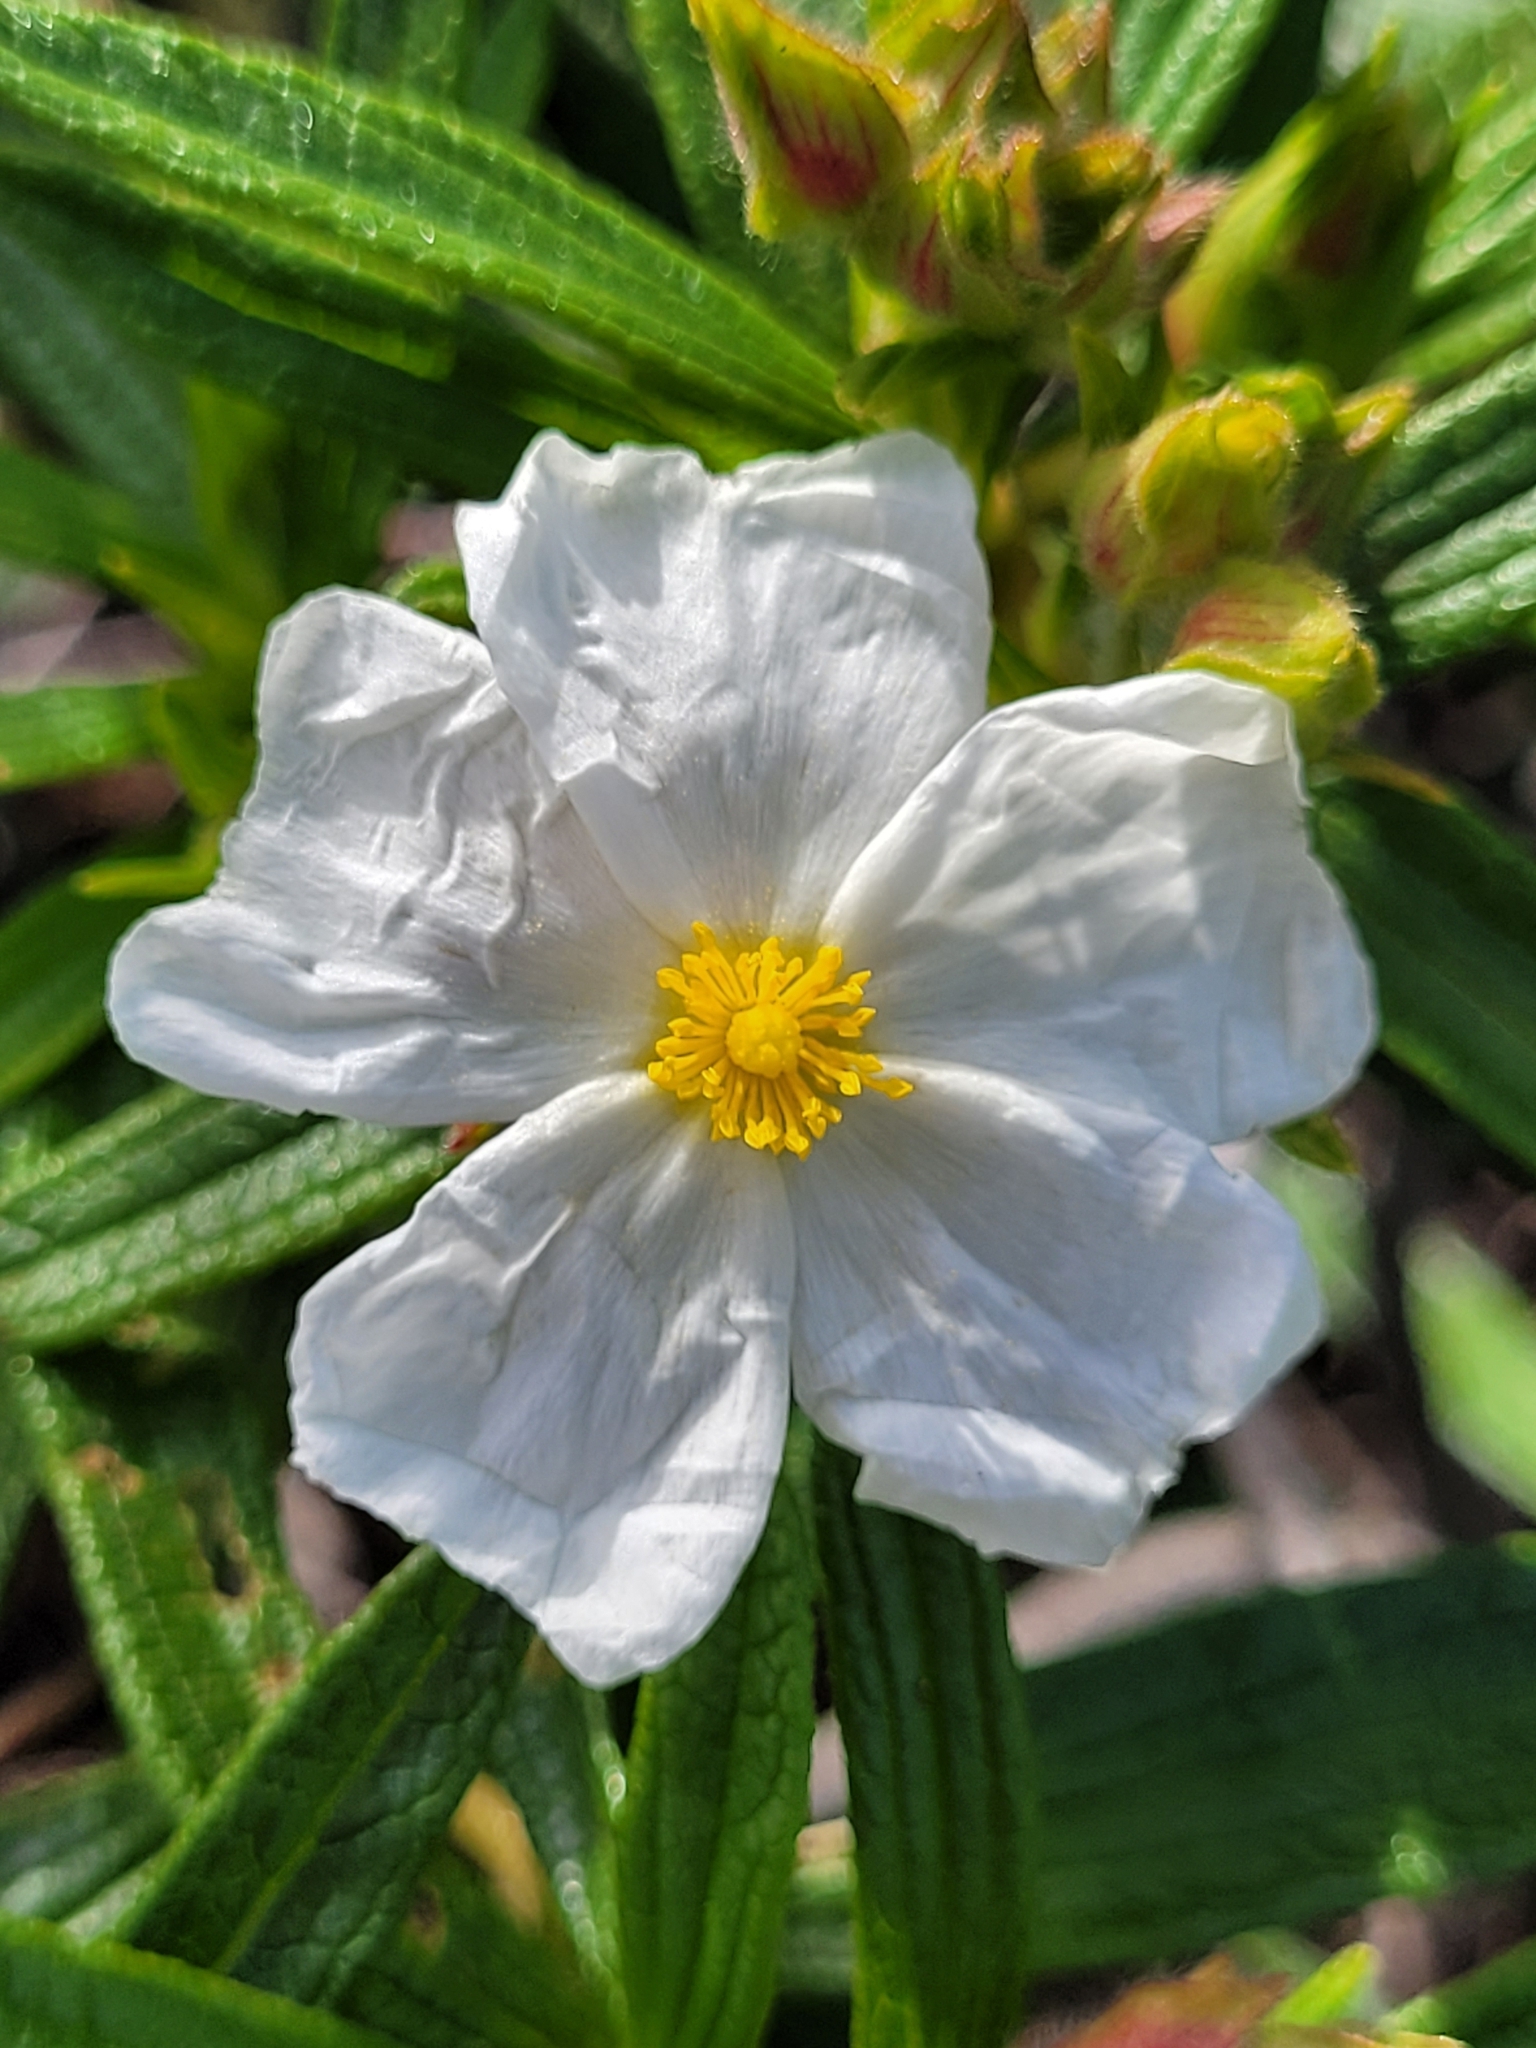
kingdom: Plantae
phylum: Tracheophyta
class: Magnoliopsida
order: Malvales
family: Cistaceae
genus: Cistus
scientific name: Cistus monspeliensis
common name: Montpelier cistus
